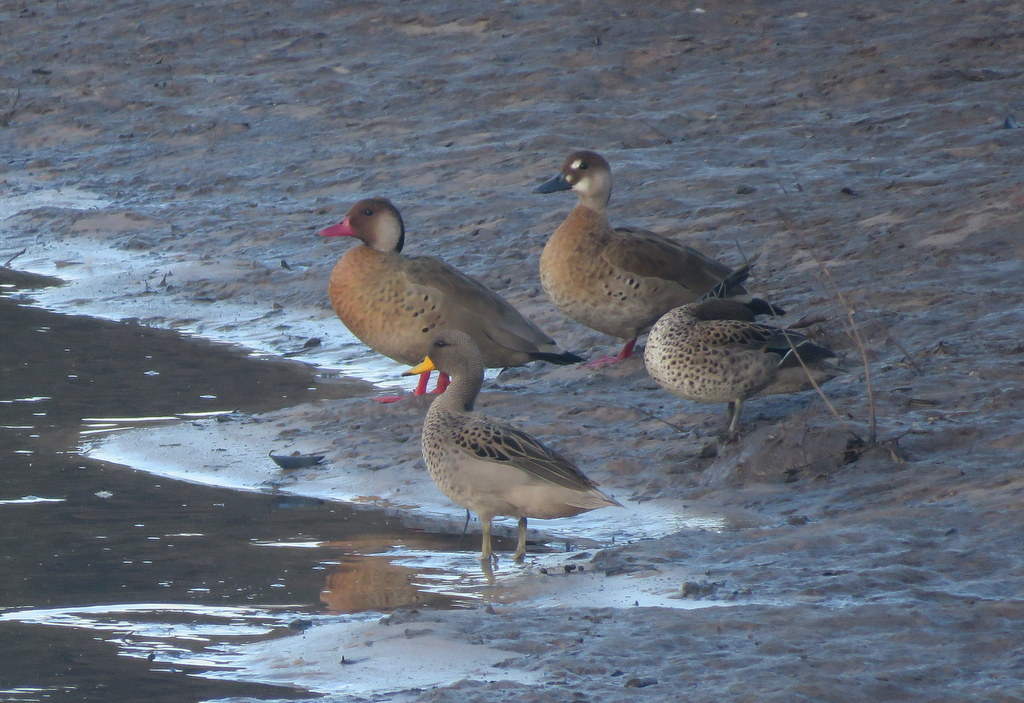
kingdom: Animalia
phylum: Chordata
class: Aves
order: Anseriformes
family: Anatidae
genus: Amazonetta
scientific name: Amazonetta brasiliensis
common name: Brazilian teal
